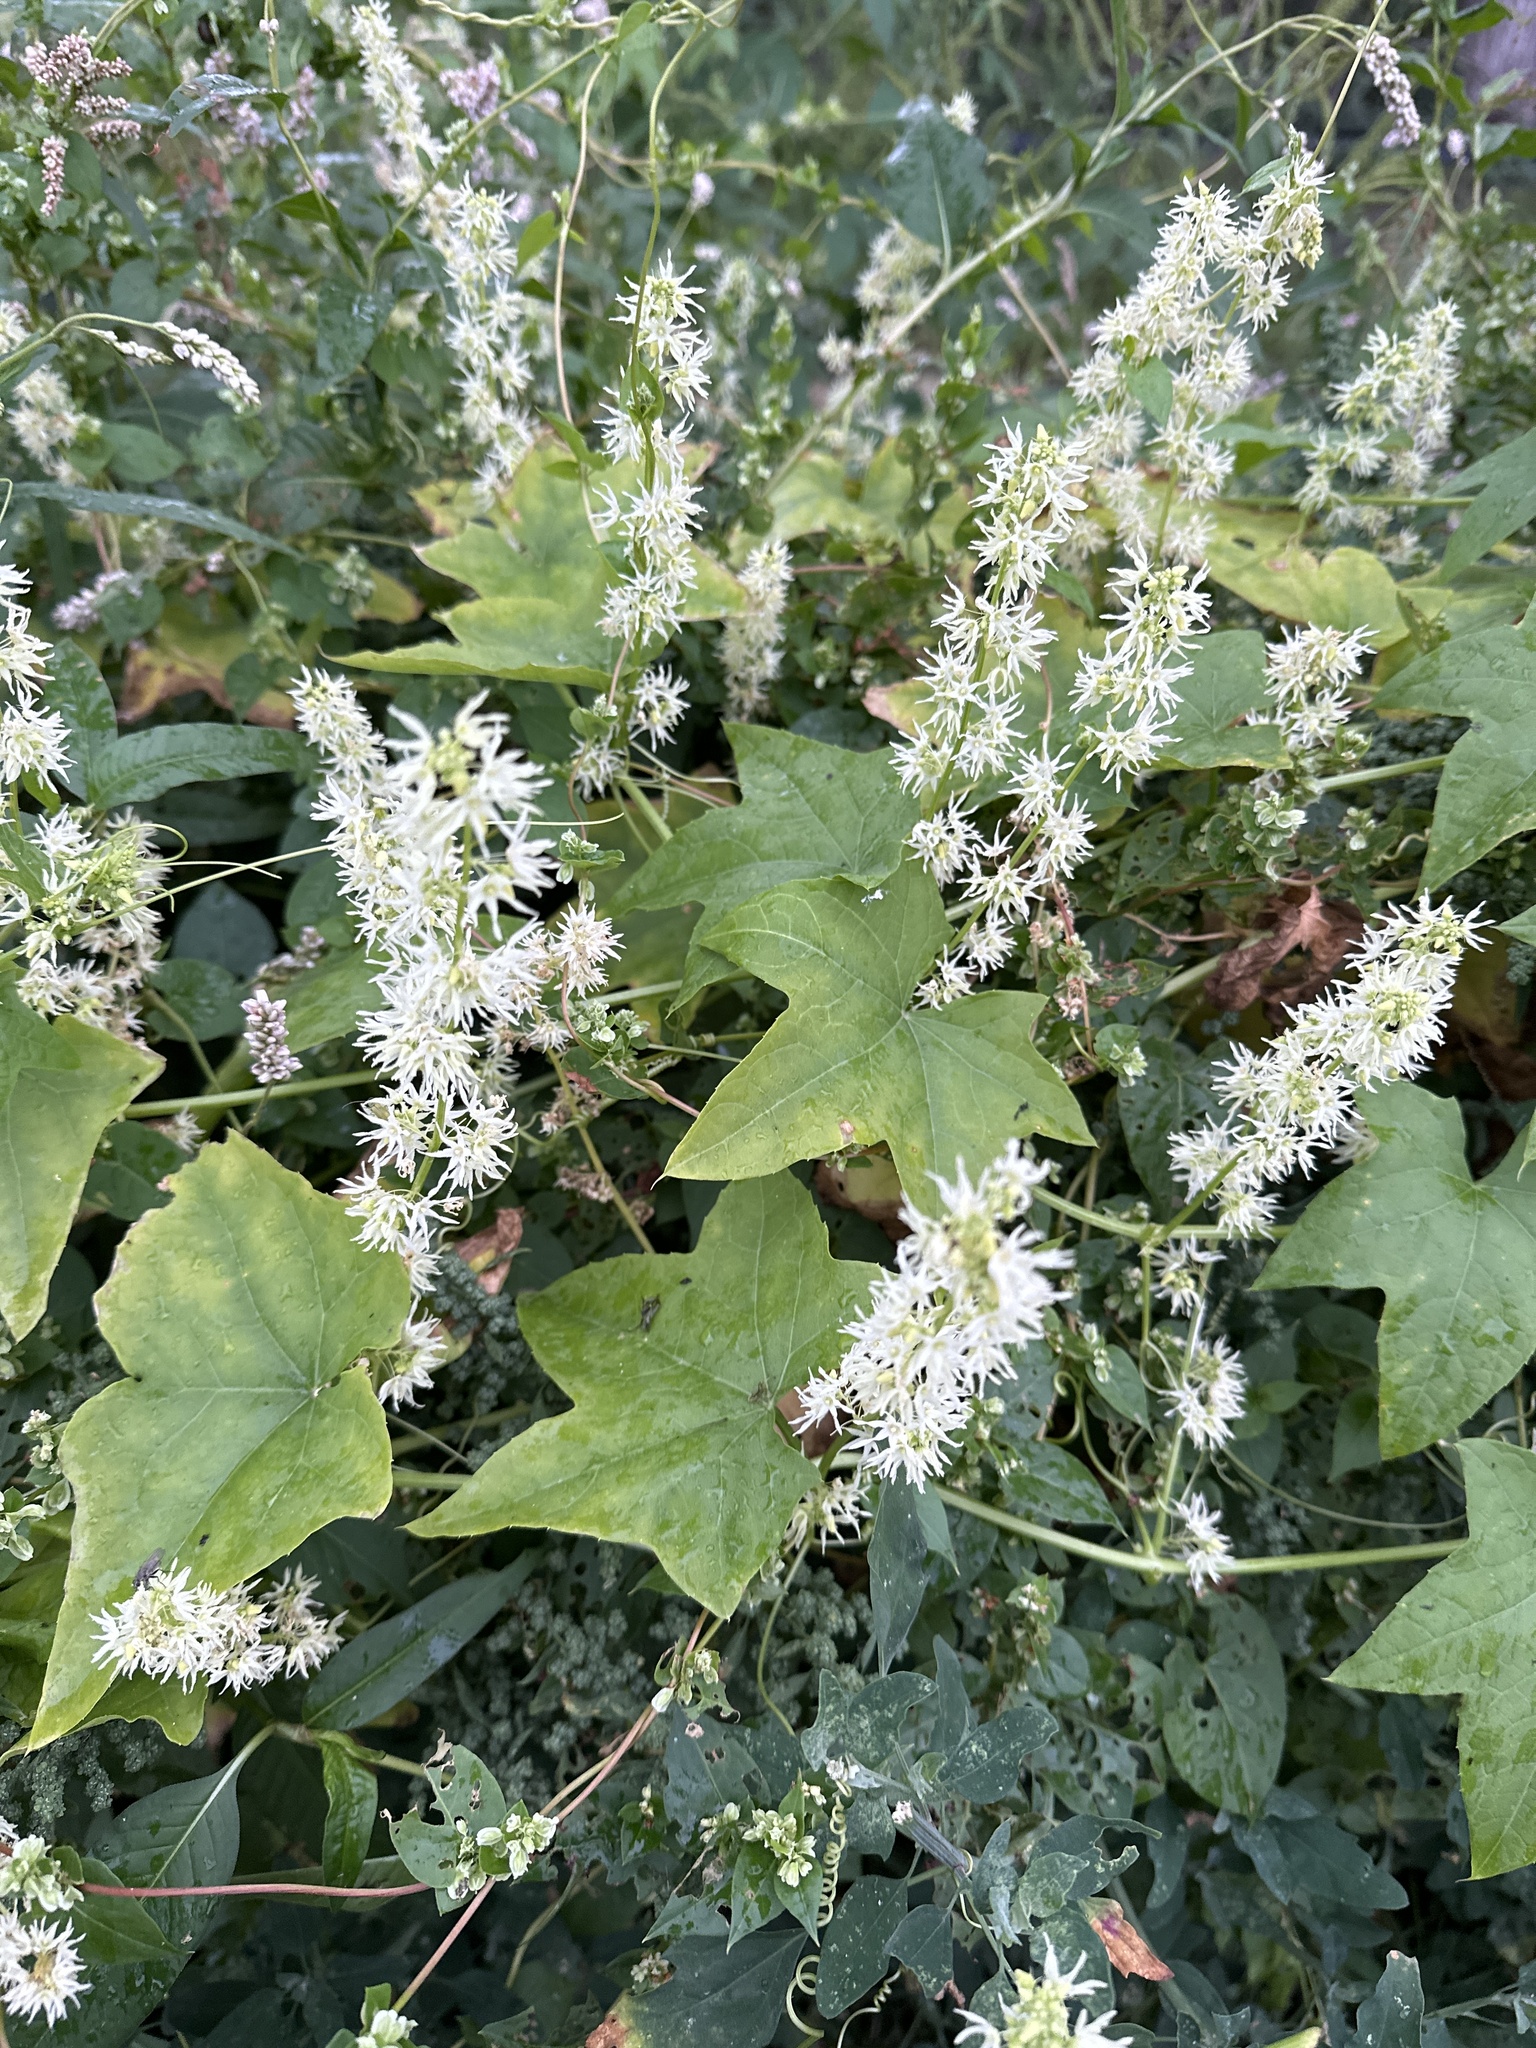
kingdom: Plantae
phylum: Tracheophyta
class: Magnoliopsida
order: Cucurbitales
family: Cucurbitaceae
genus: Echinocystis
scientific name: Echinocystis lobata
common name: Wild cucumber
